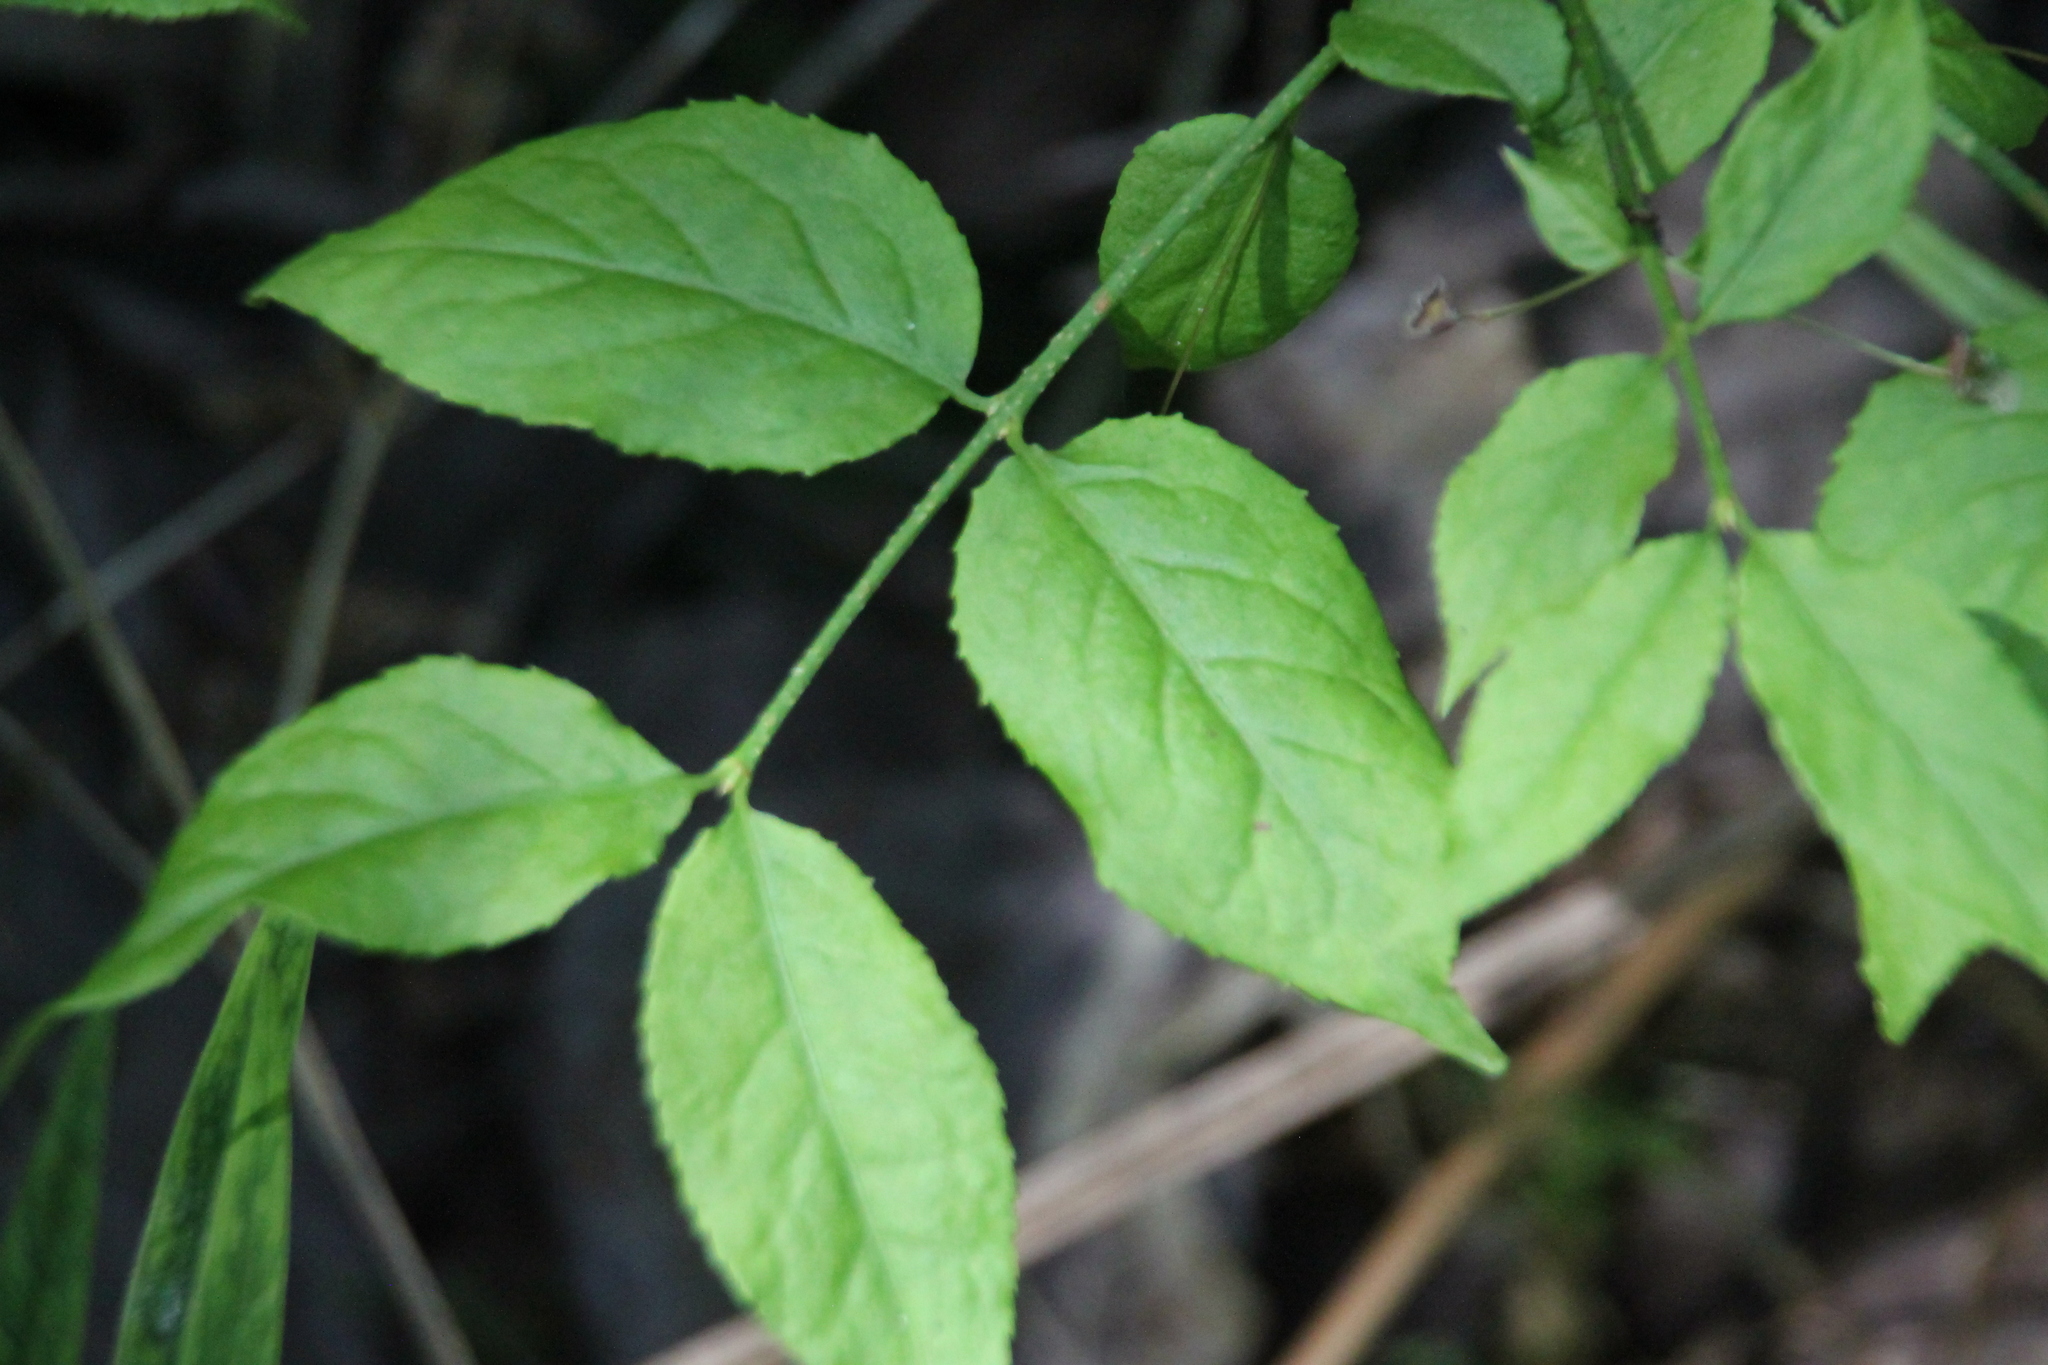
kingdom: Plantae
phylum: Tracheophyta
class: Magnoliopsida
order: Celastrales
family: Celastraceae
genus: Euonymus
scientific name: Euonymus verrucosus
